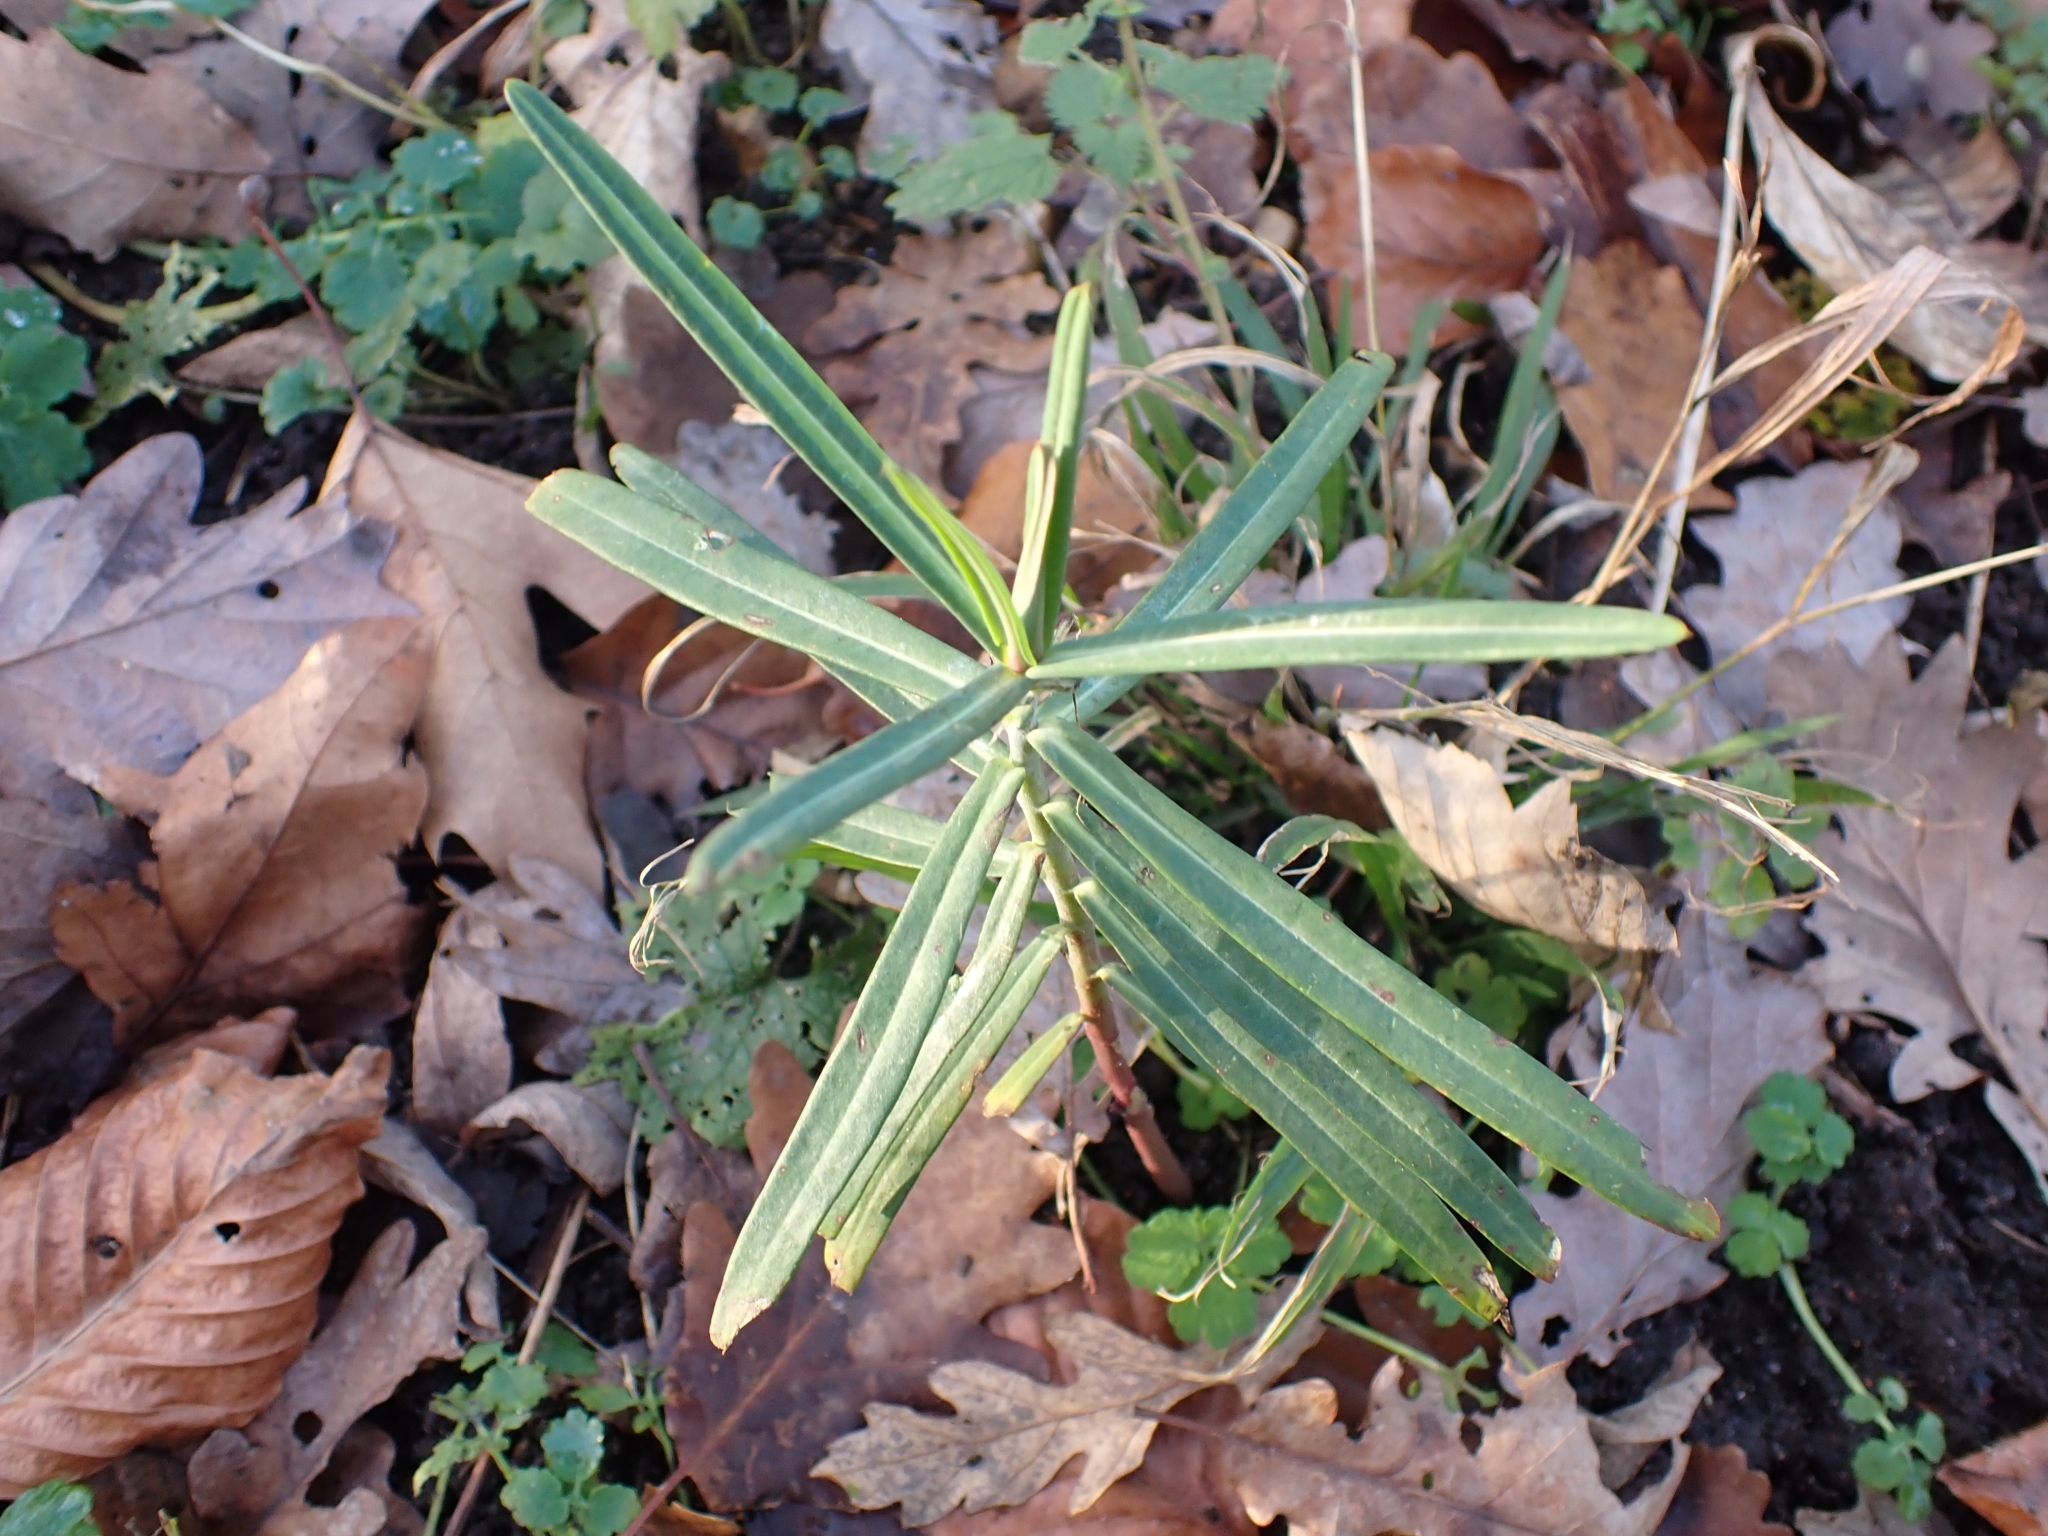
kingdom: Plantae
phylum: Tracheophyta
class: Magnoliopsida
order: Malpighiales
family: Euphorbiaceae
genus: Euphorbia
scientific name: Euphorbia lathyris
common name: Caper spurge
